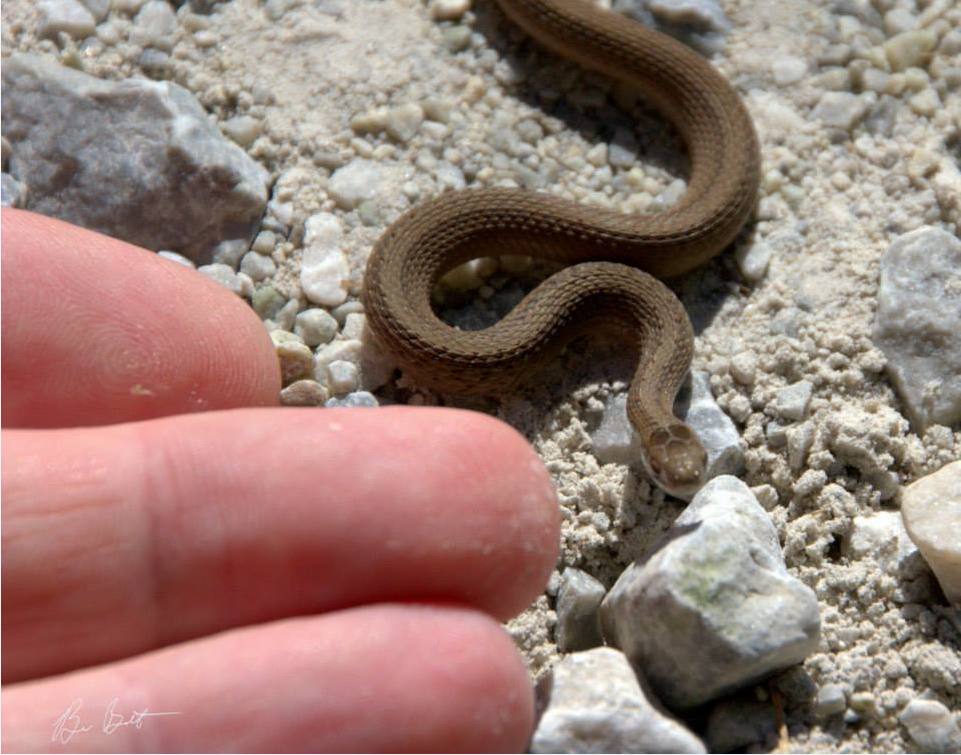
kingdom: Animalia
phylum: Chordata
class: Squamata
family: Colubridae
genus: Storeria
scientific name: Storeria dekayi
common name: (dekay’s) brown snake
